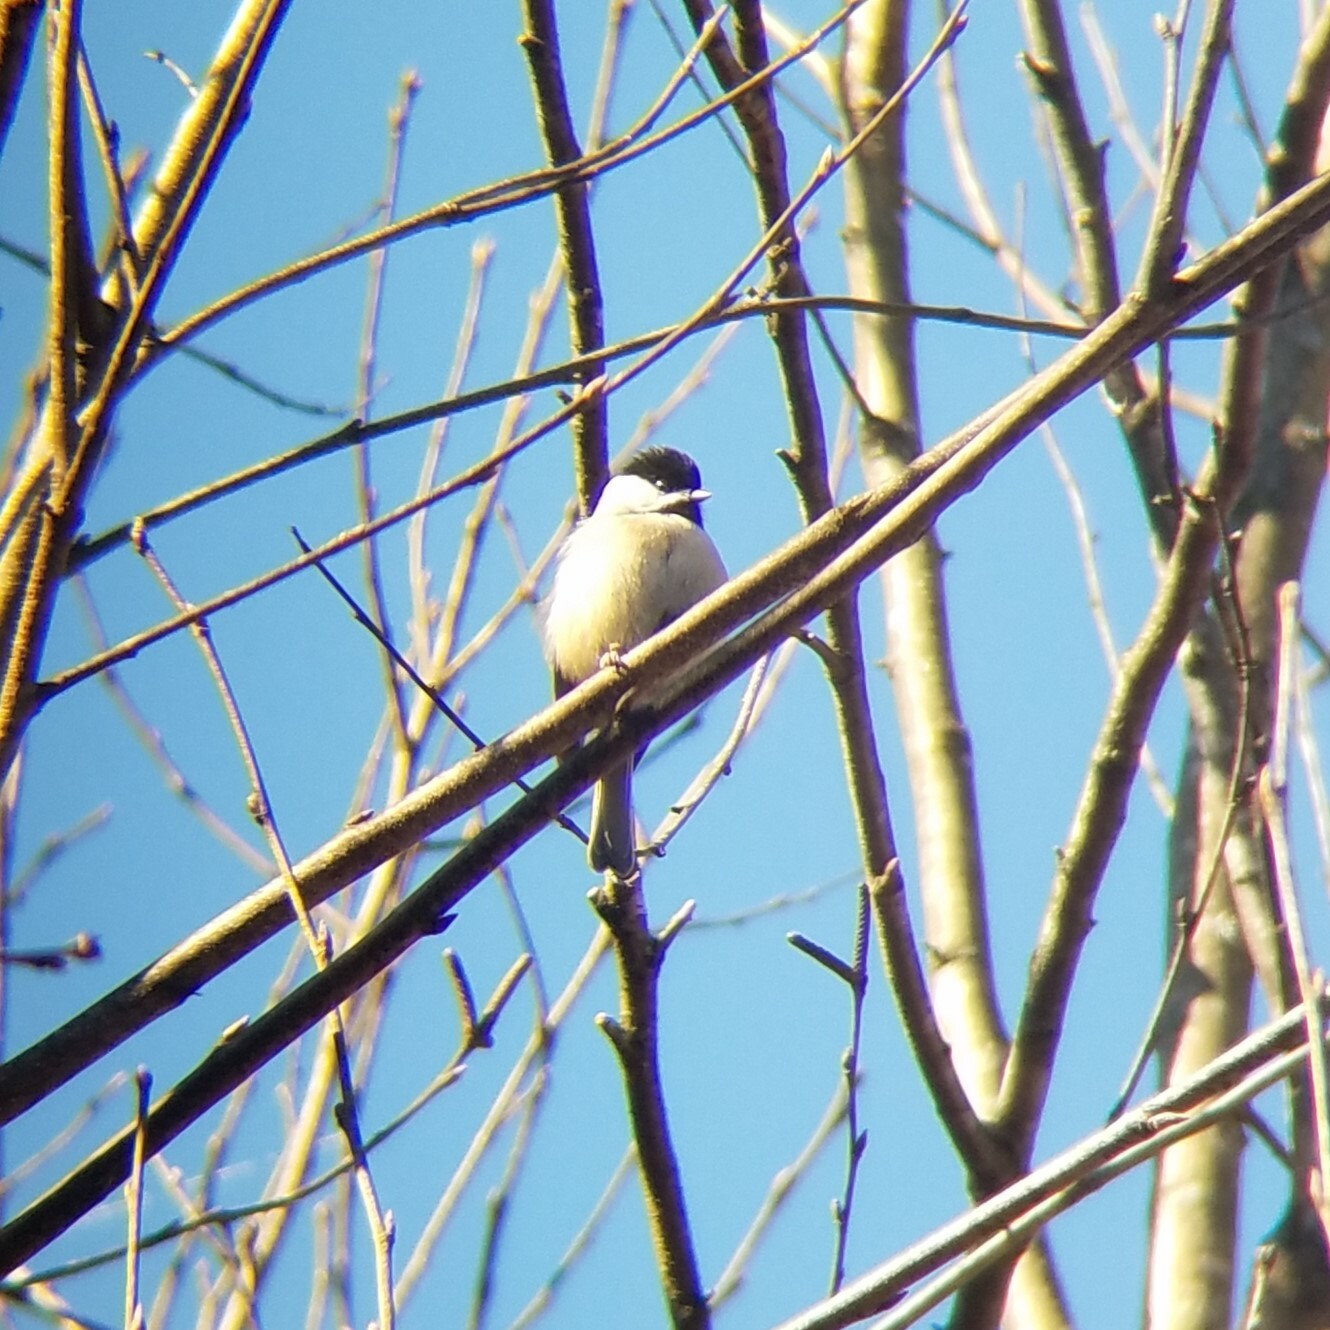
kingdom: Animalia
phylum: Chordata
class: Aves
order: Passeriformes
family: Paridae
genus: Poecile
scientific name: Poecile carolinensis
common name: Carolina chickadee
